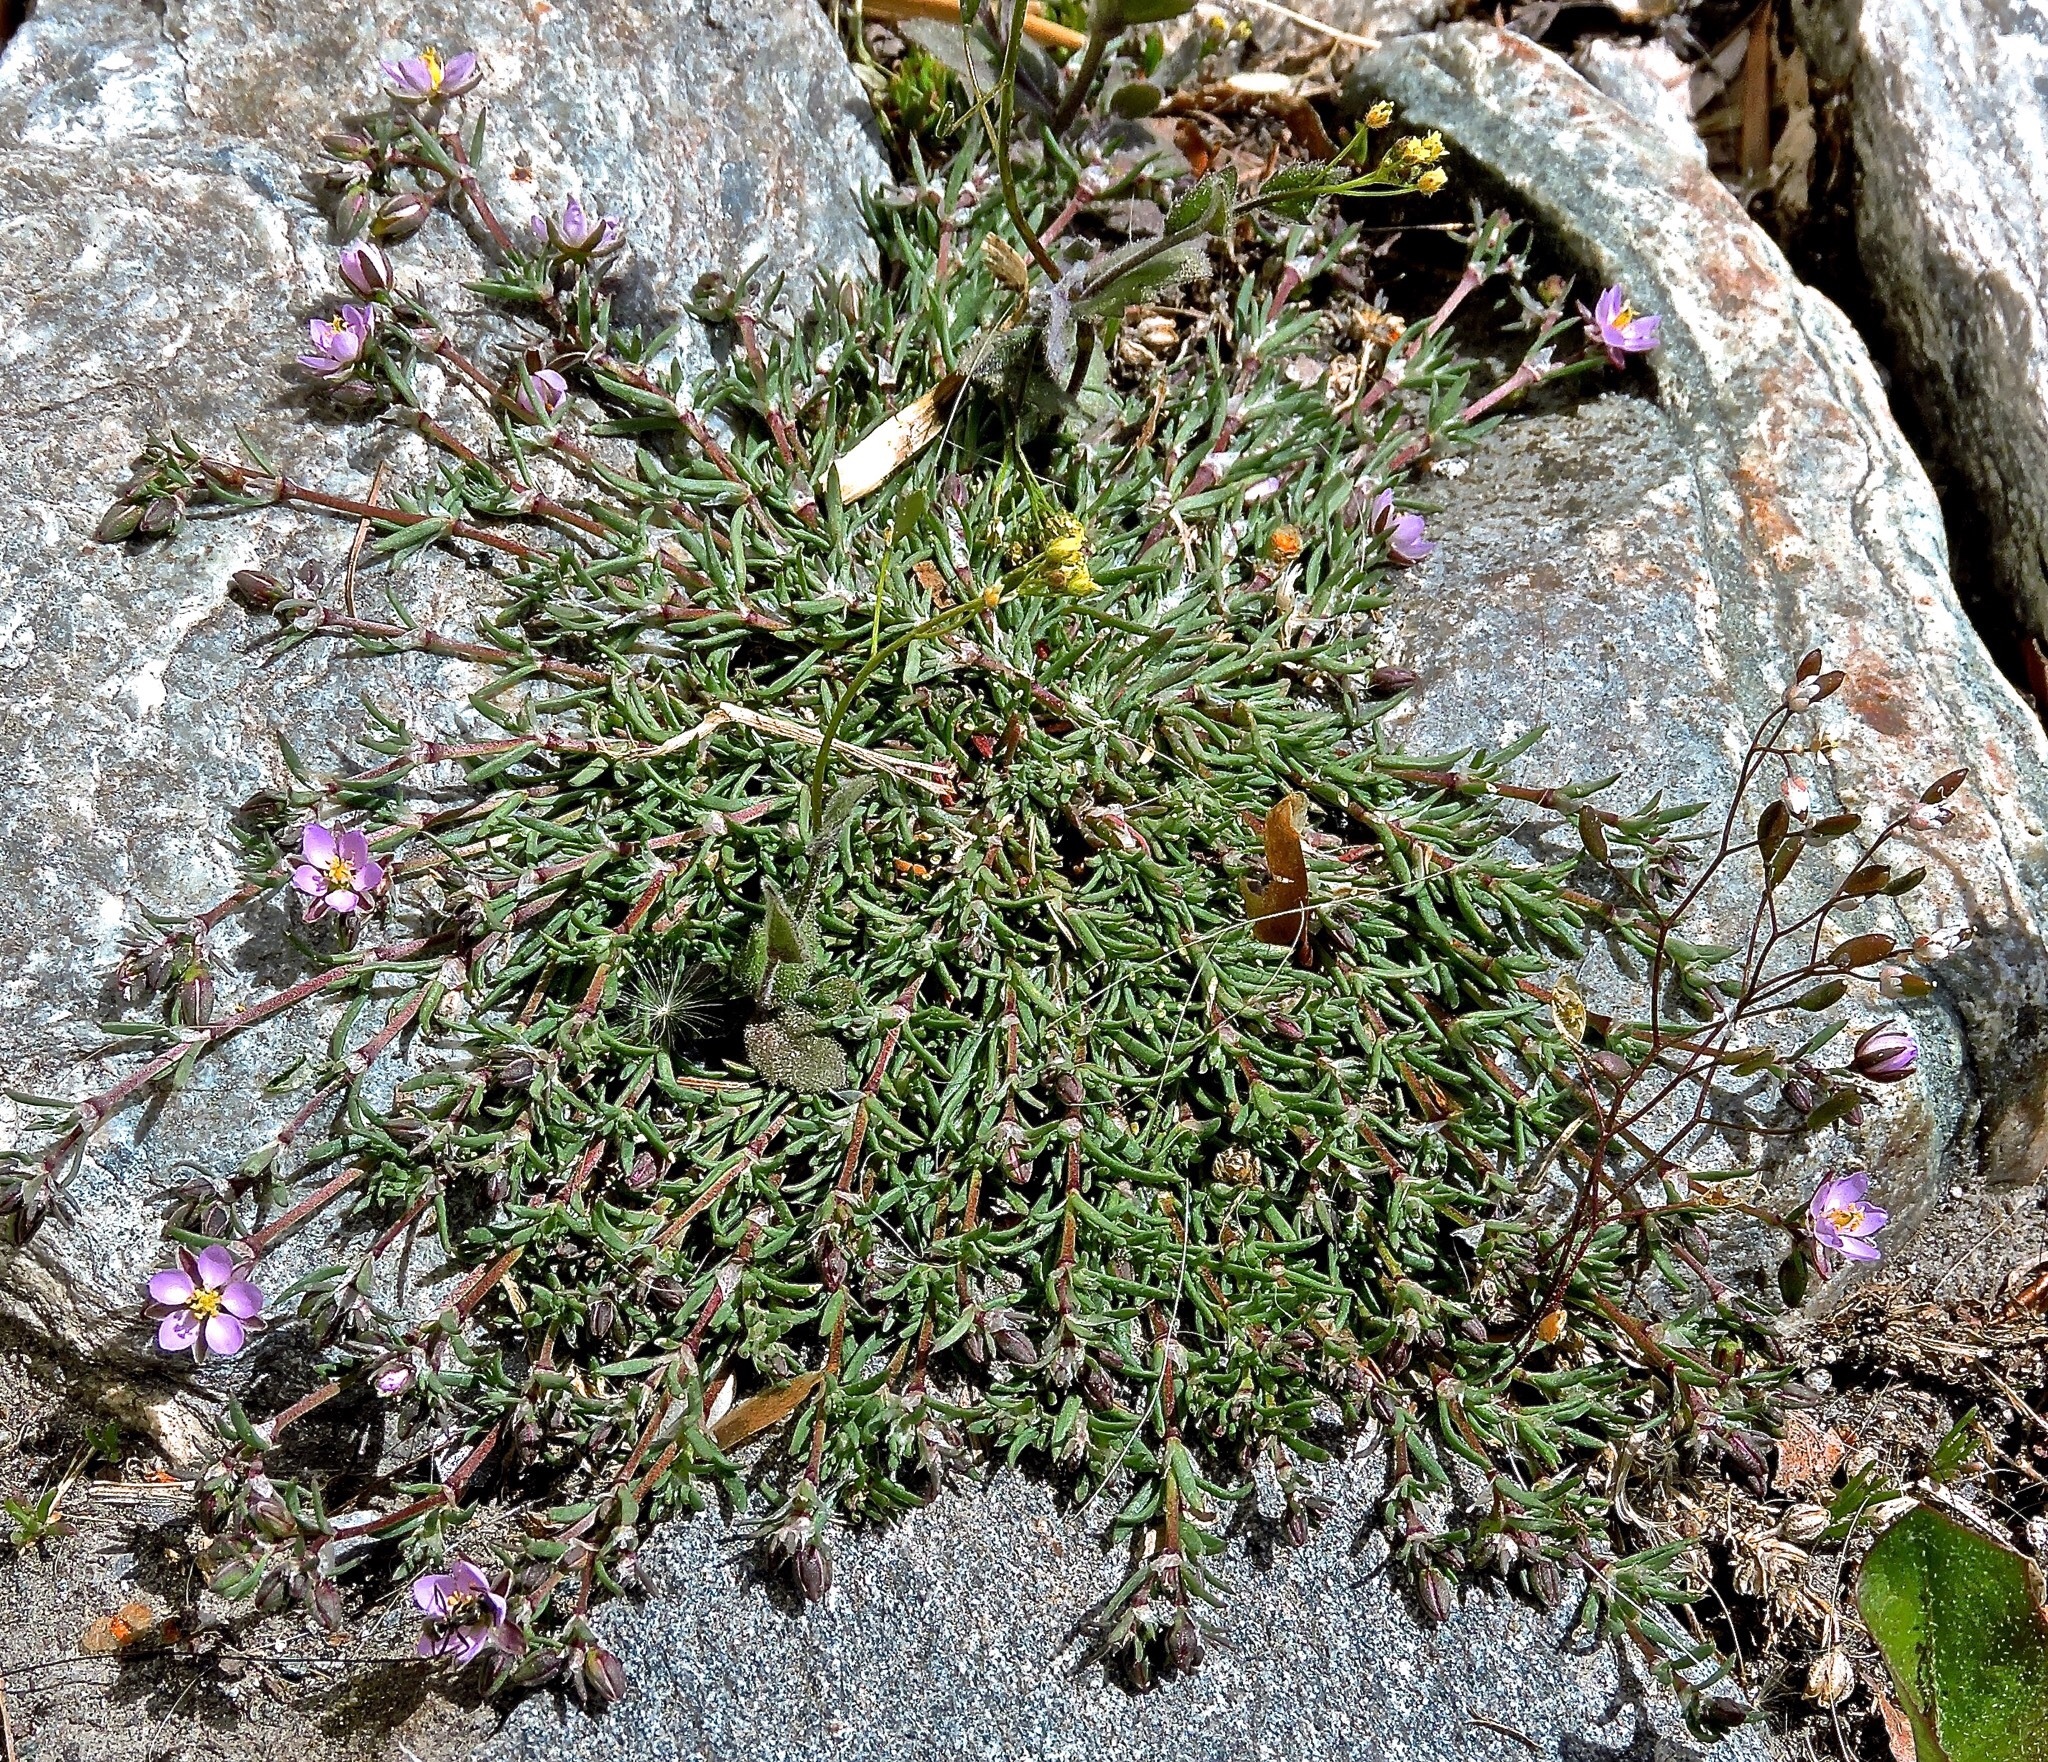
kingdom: Plantae
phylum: Tracheophyta
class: Magnoliopsida
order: Caryophyllales
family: Caryophyllaceae
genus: Spergularia
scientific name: Spergularia rubra
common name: Red sand-spurrey
